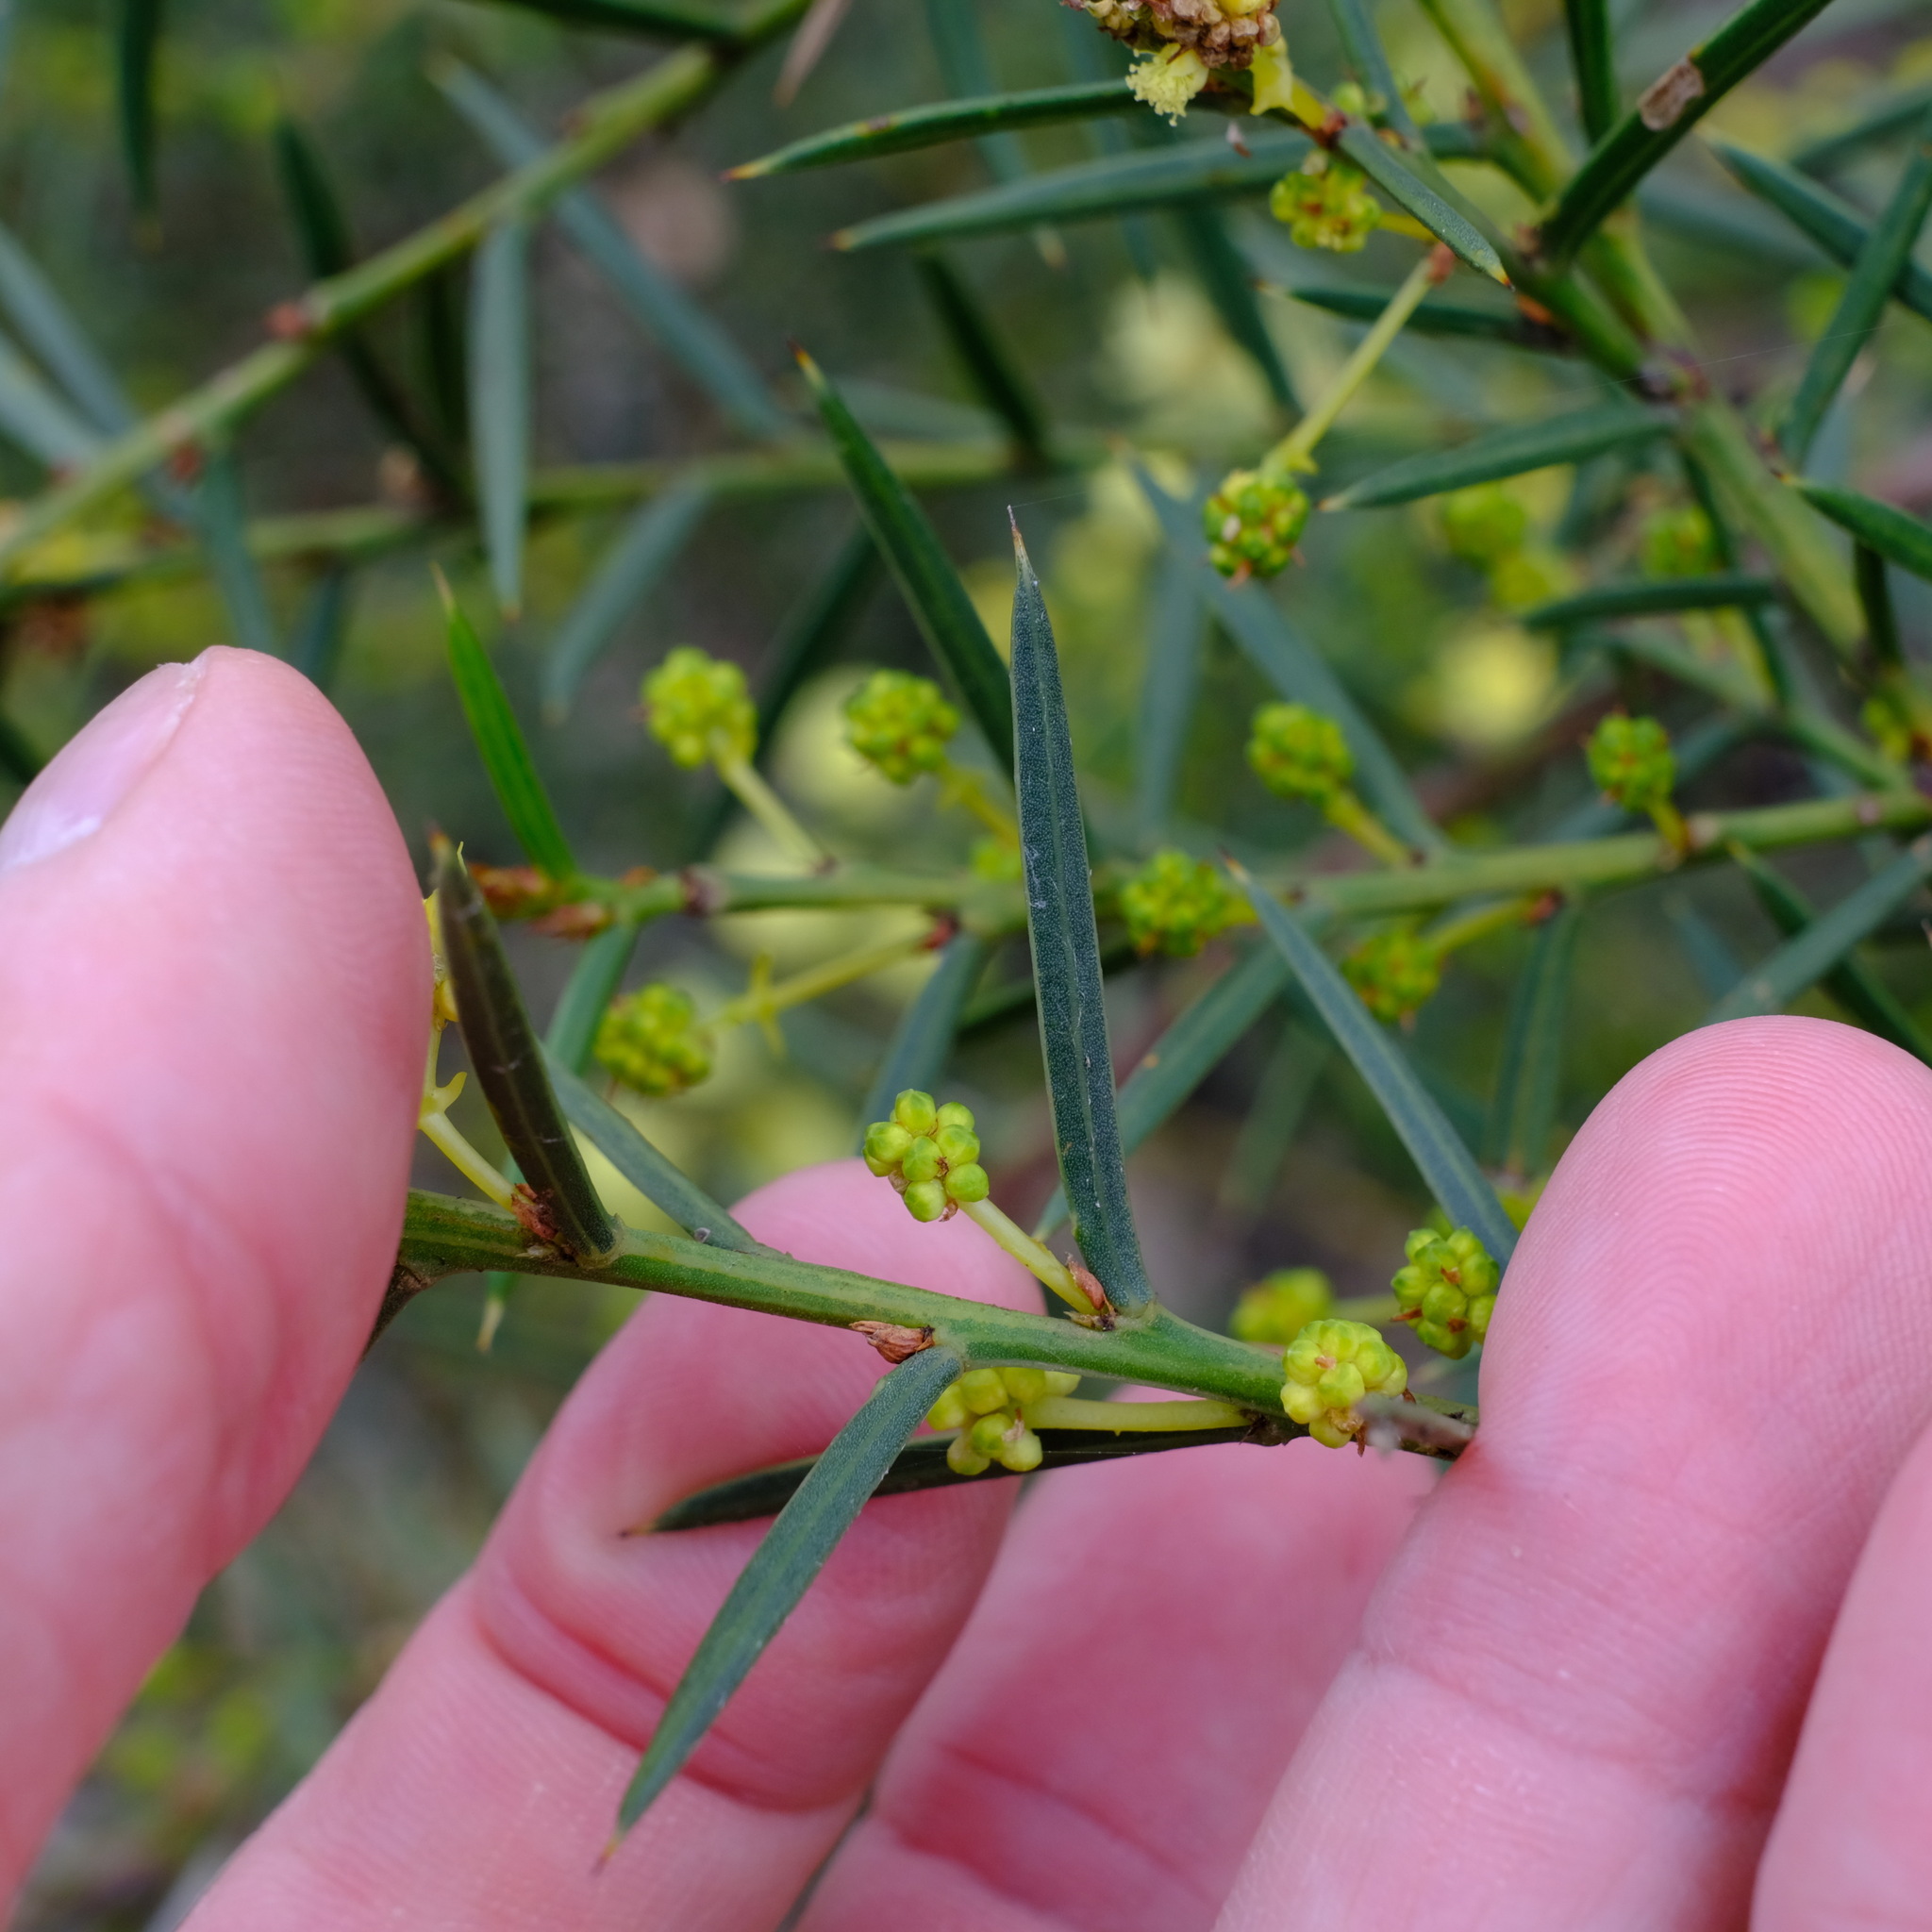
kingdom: Plantae
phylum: Tracheophyta
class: Magnoliopsida
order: Fabales
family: Fabaceae
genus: Acacia
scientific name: Acacia genistifolia
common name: Early wattle
